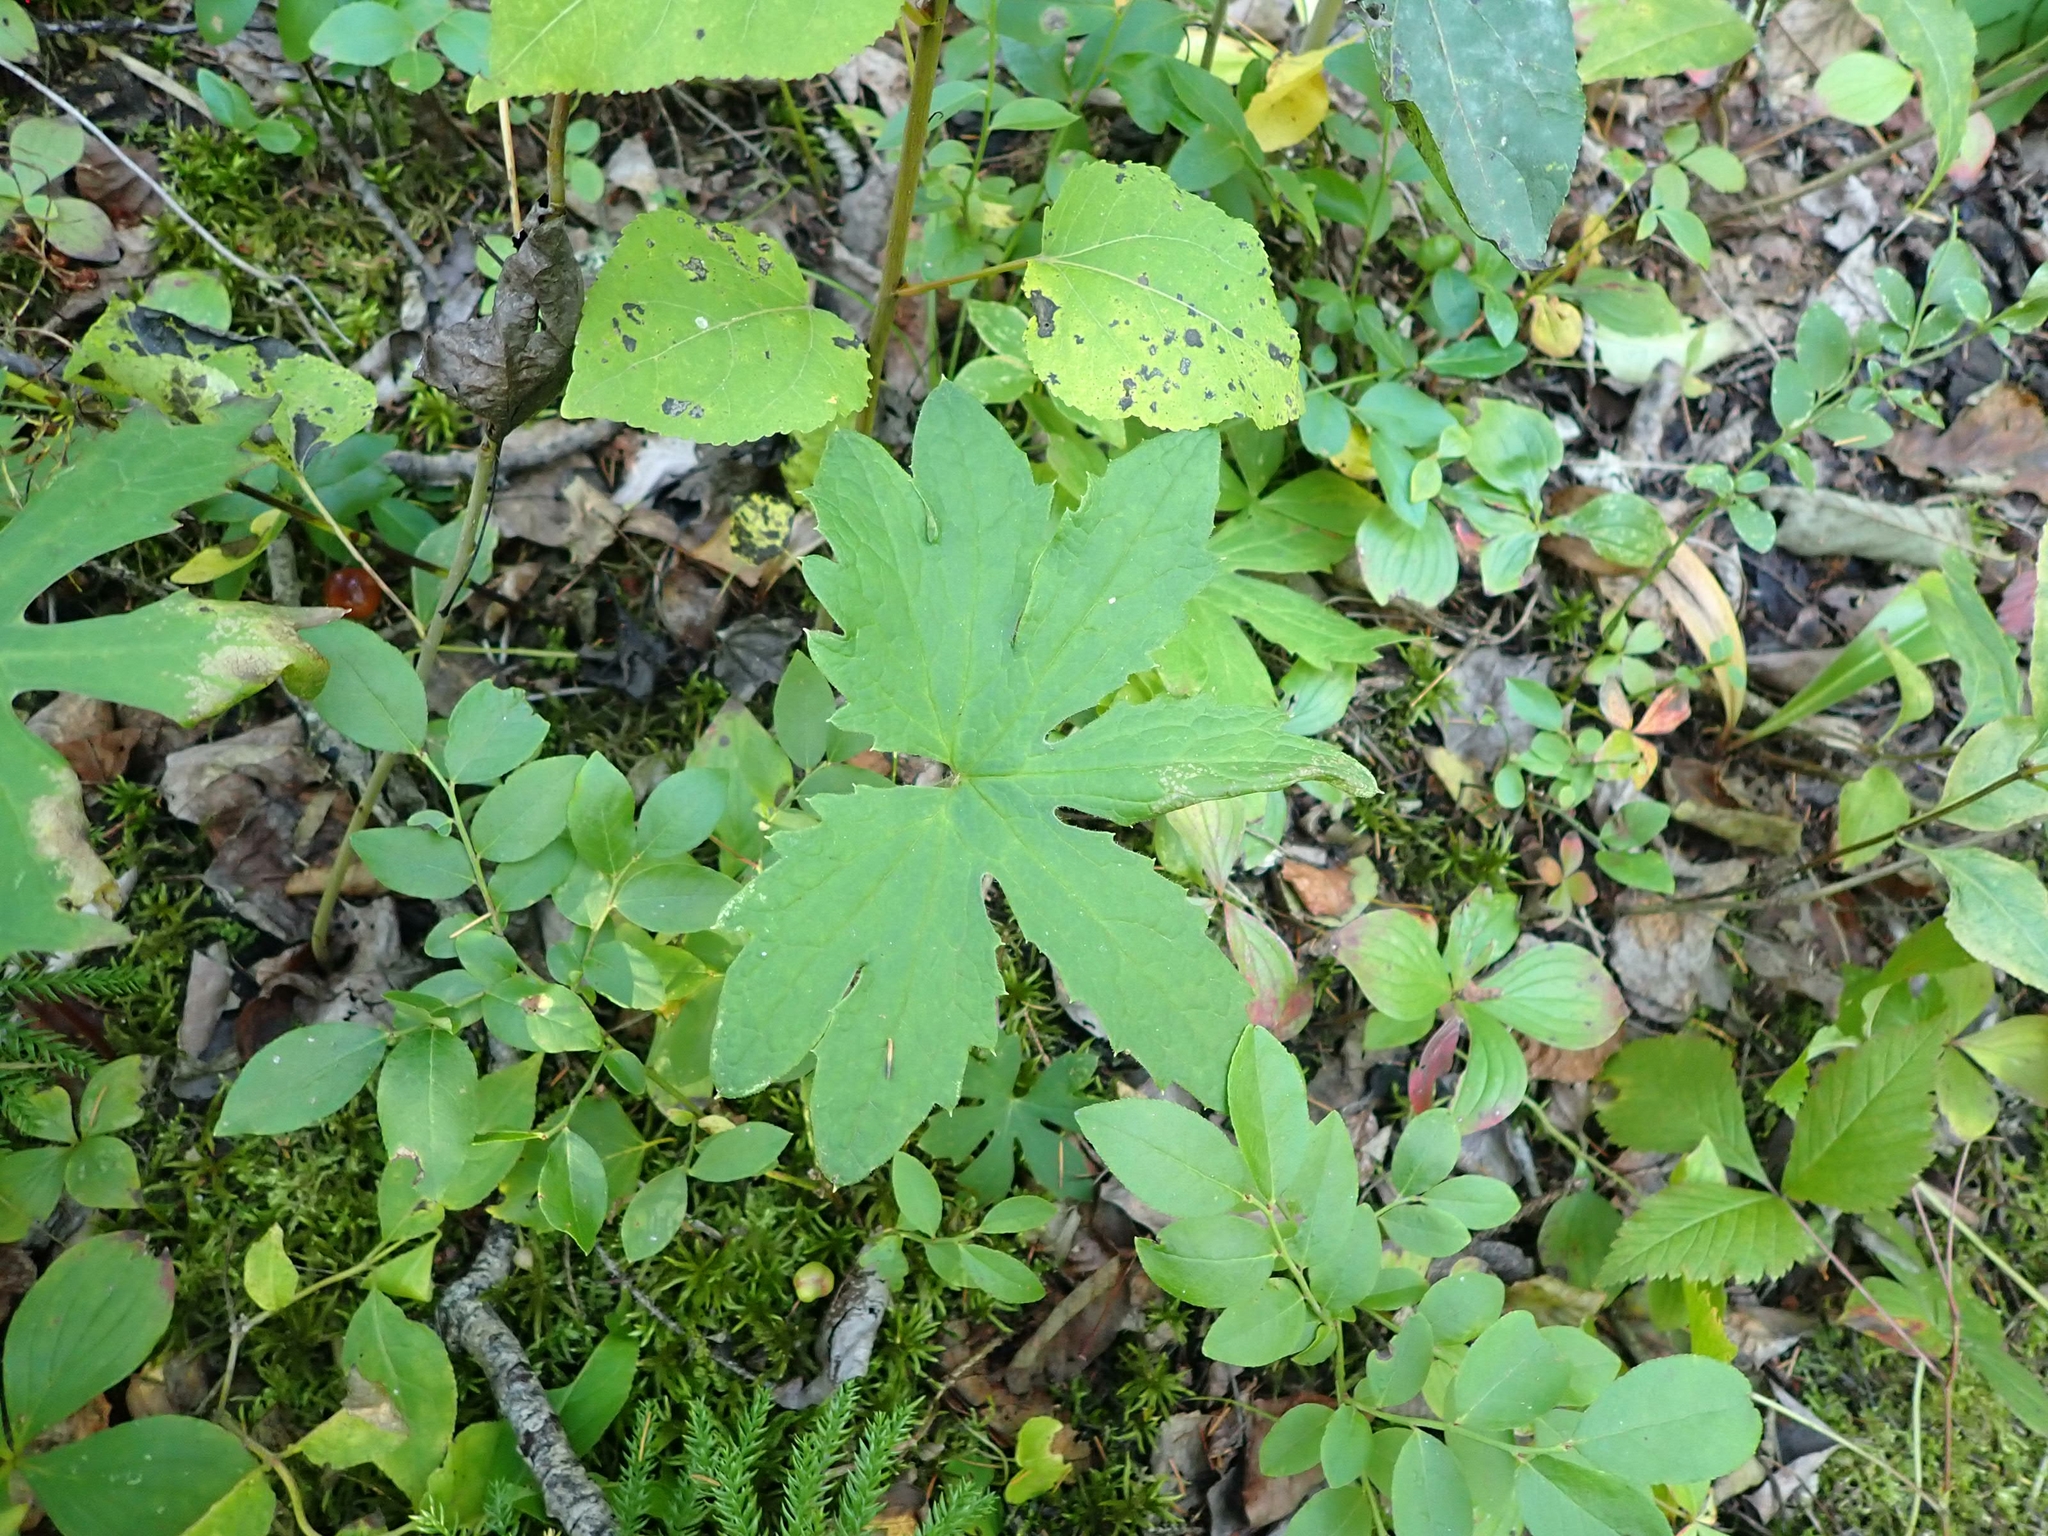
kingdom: Plantae
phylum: Tracheophyta
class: Magnoliopsida
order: Asterales
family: Asteraceae
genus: Petasites
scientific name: Petasites frigidus
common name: Arctic butterbur
